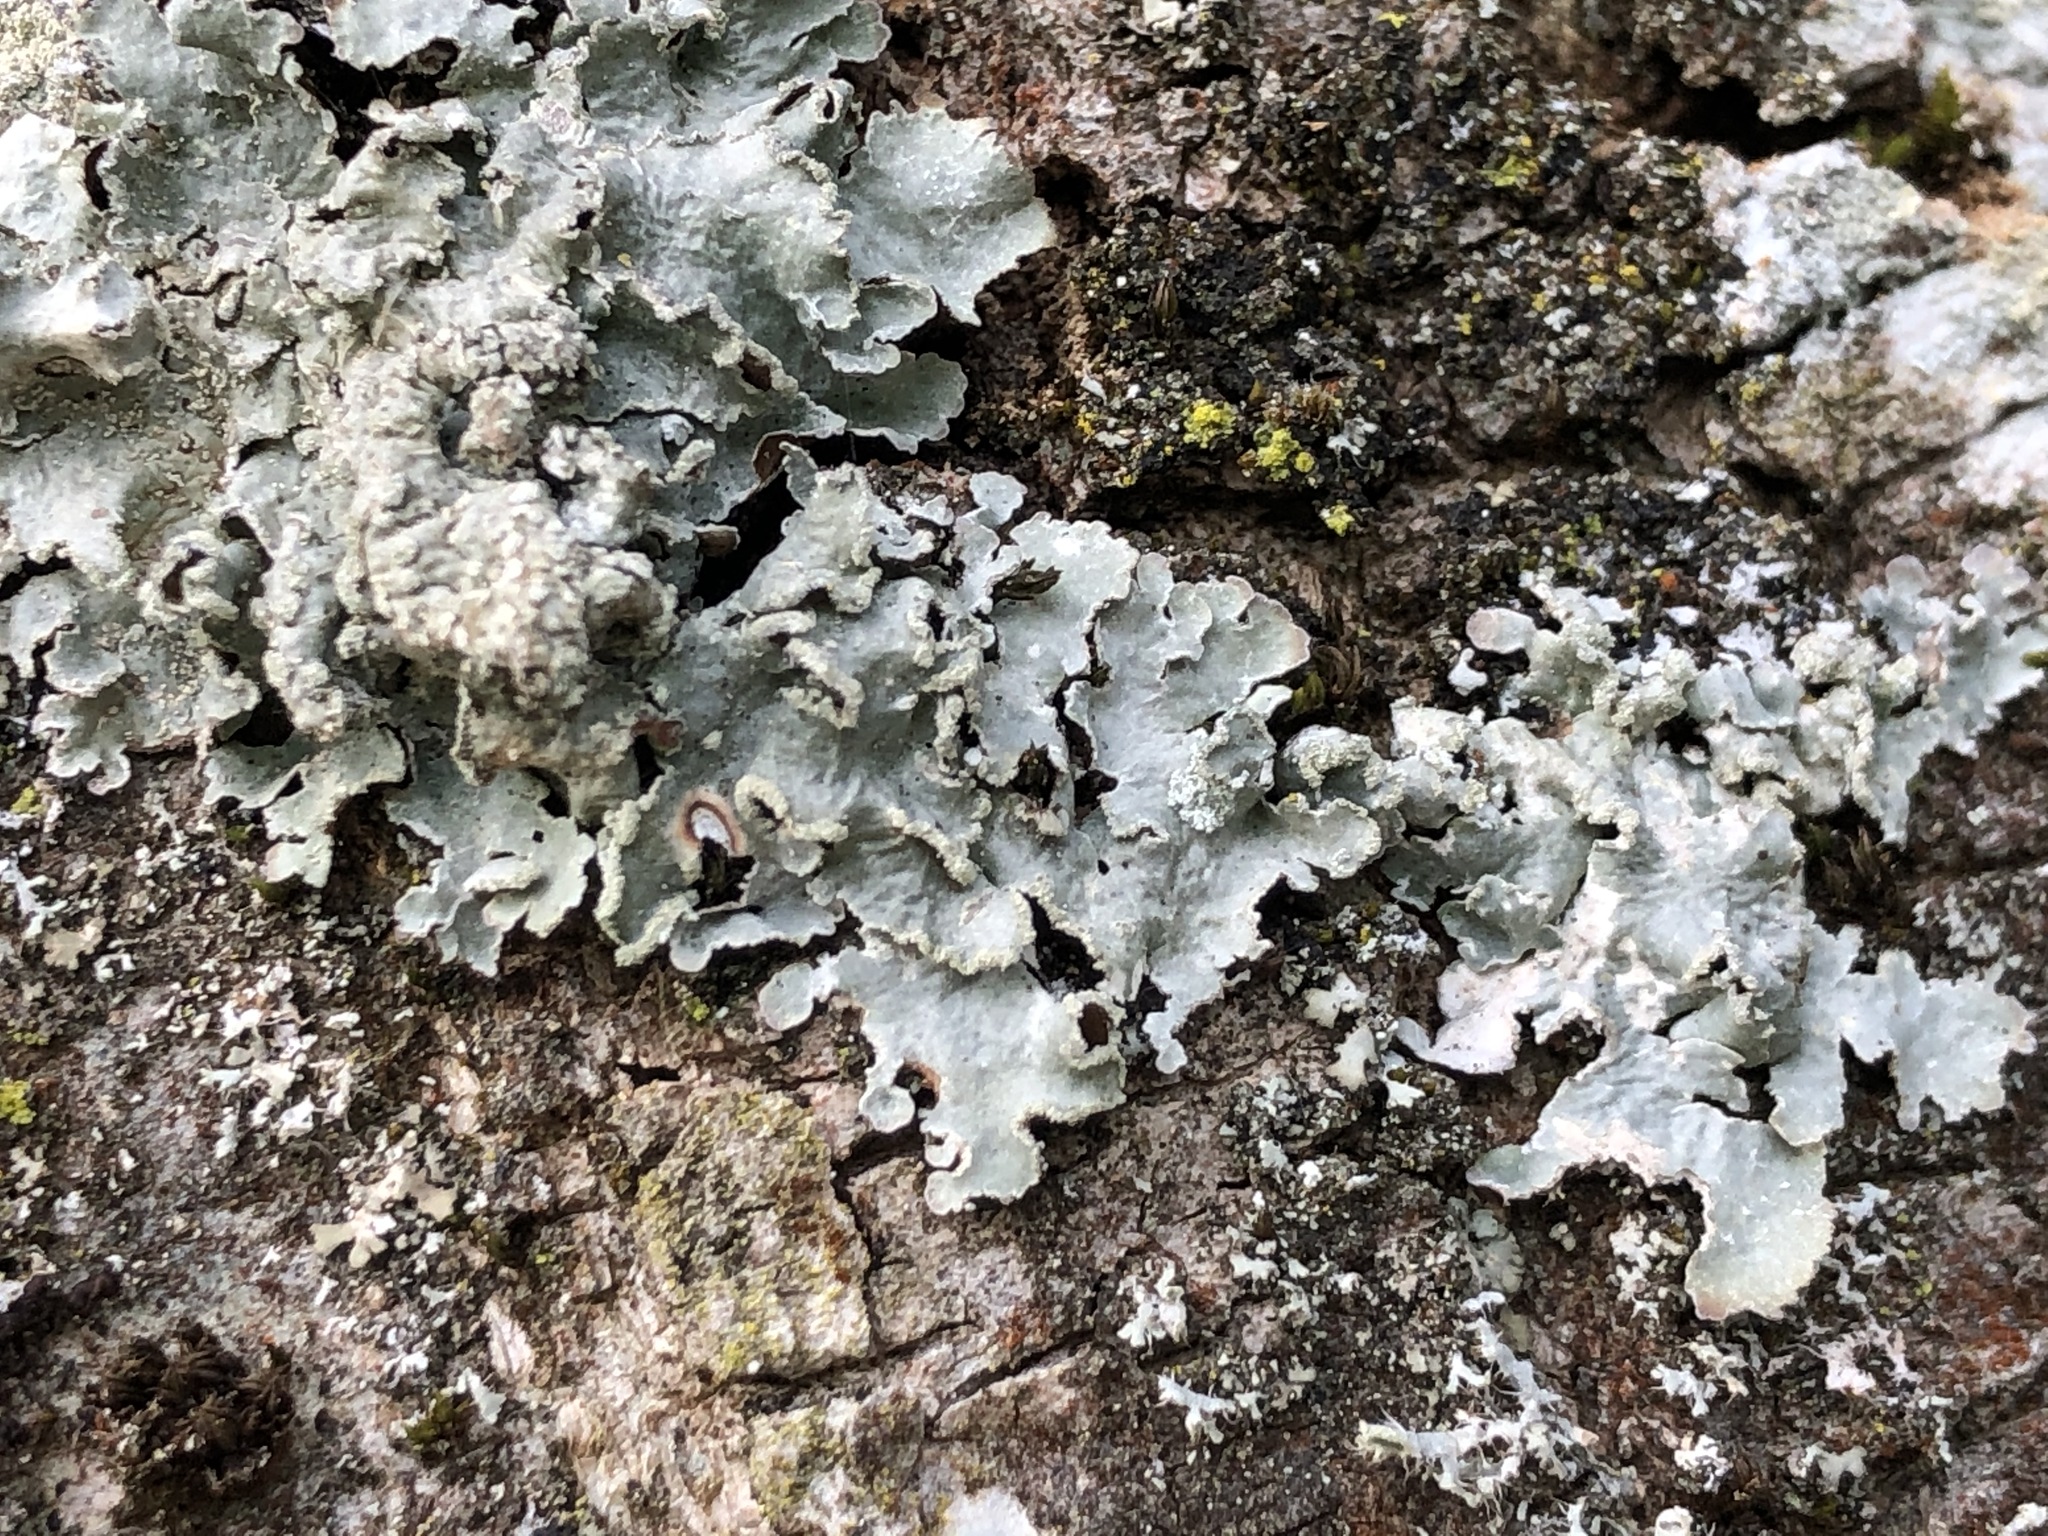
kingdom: Fungi
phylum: Ascomycota
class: Lecanoromycetes
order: Lecanorales
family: Parmeliaceae
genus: Parmelia
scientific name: Parmelia sulcata
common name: Netted shield lichen
